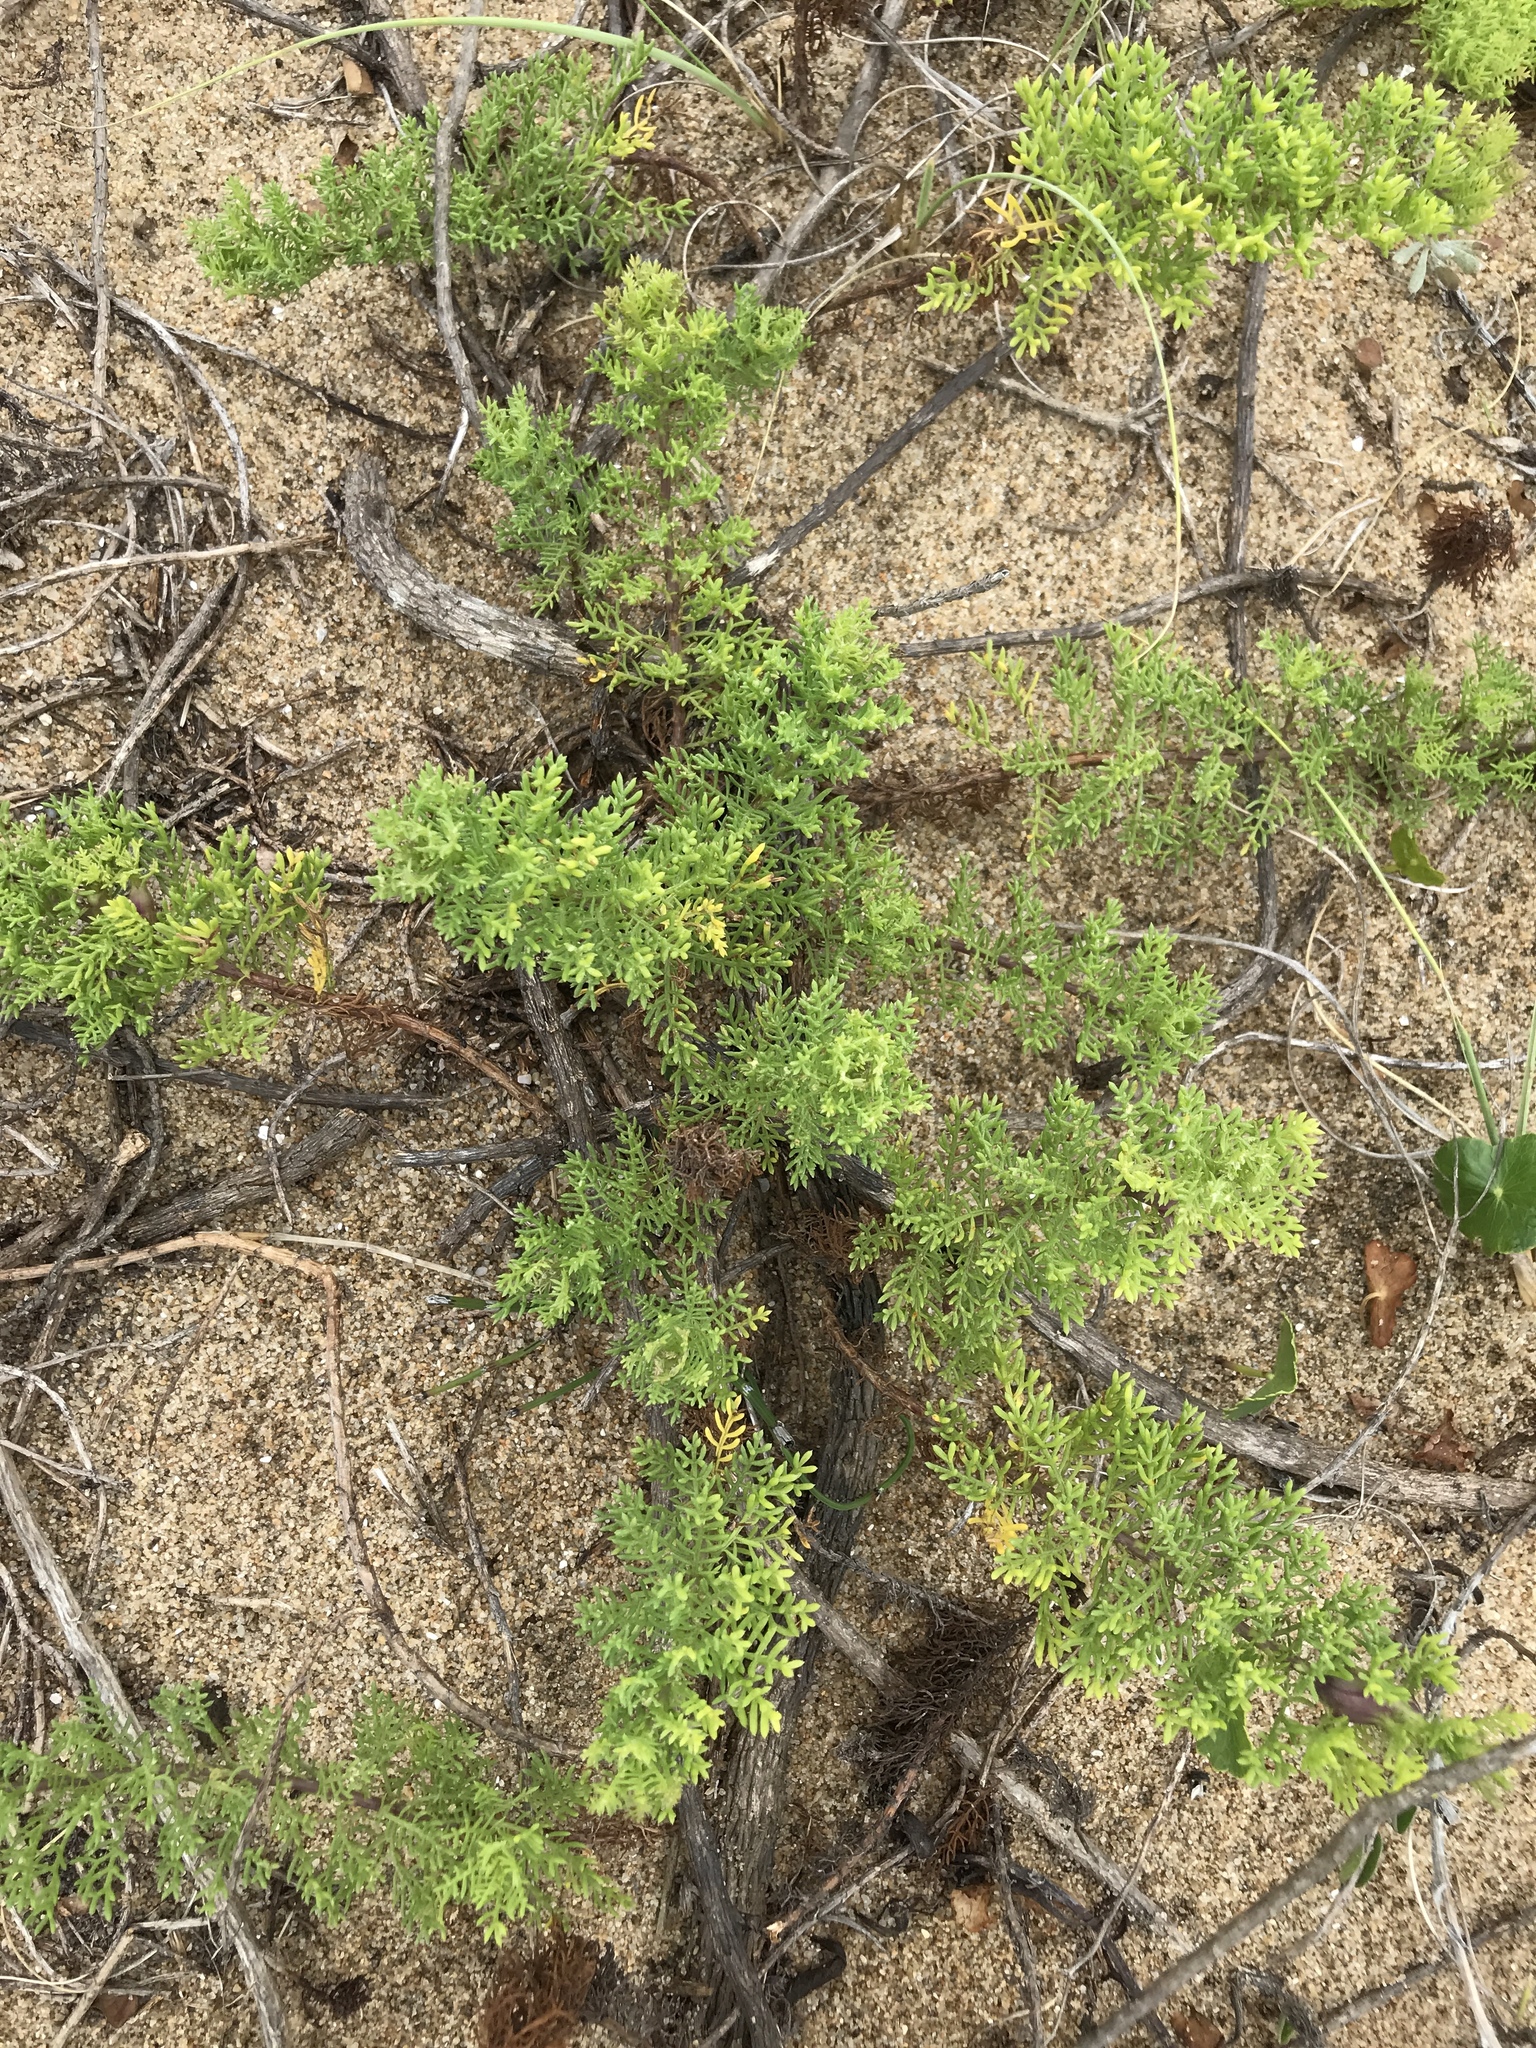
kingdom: Plantae
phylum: Tracheophyta
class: Magnoliopsida
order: Asterales
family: Asteraceae
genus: Senecio
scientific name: Senecio platensis
